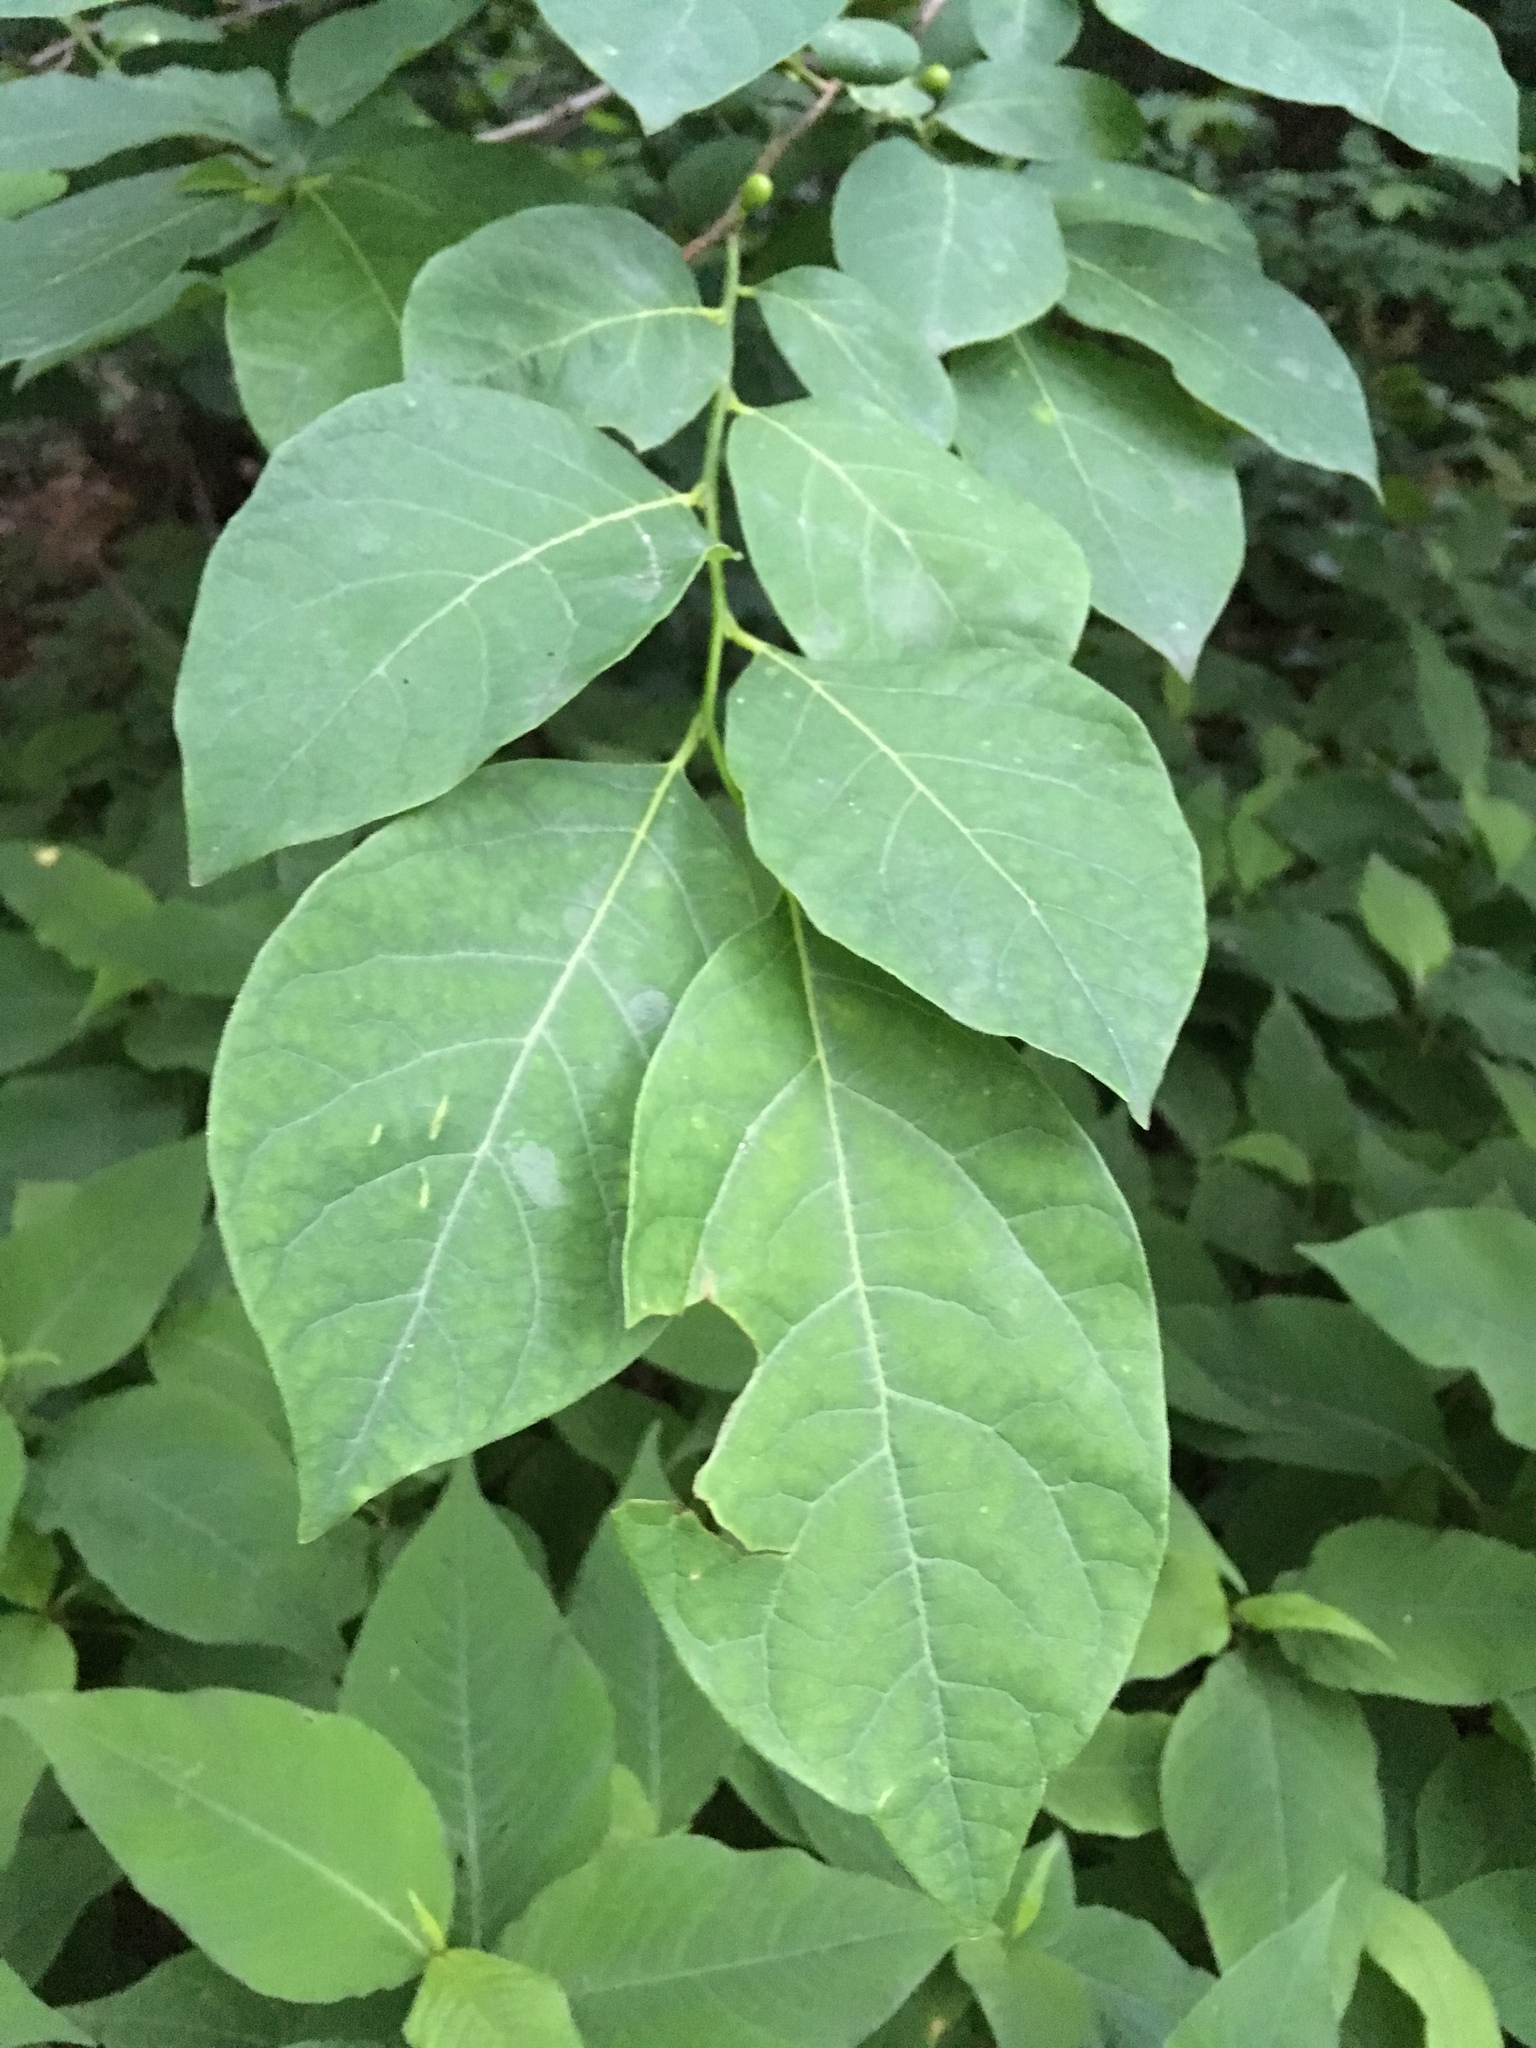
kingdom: Plantae
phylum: Tracheophyta
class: Magnoliopsida
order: Laurales
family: Lauraceae
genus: Lindera
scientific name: Lindera benzoin
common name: Spicebush
